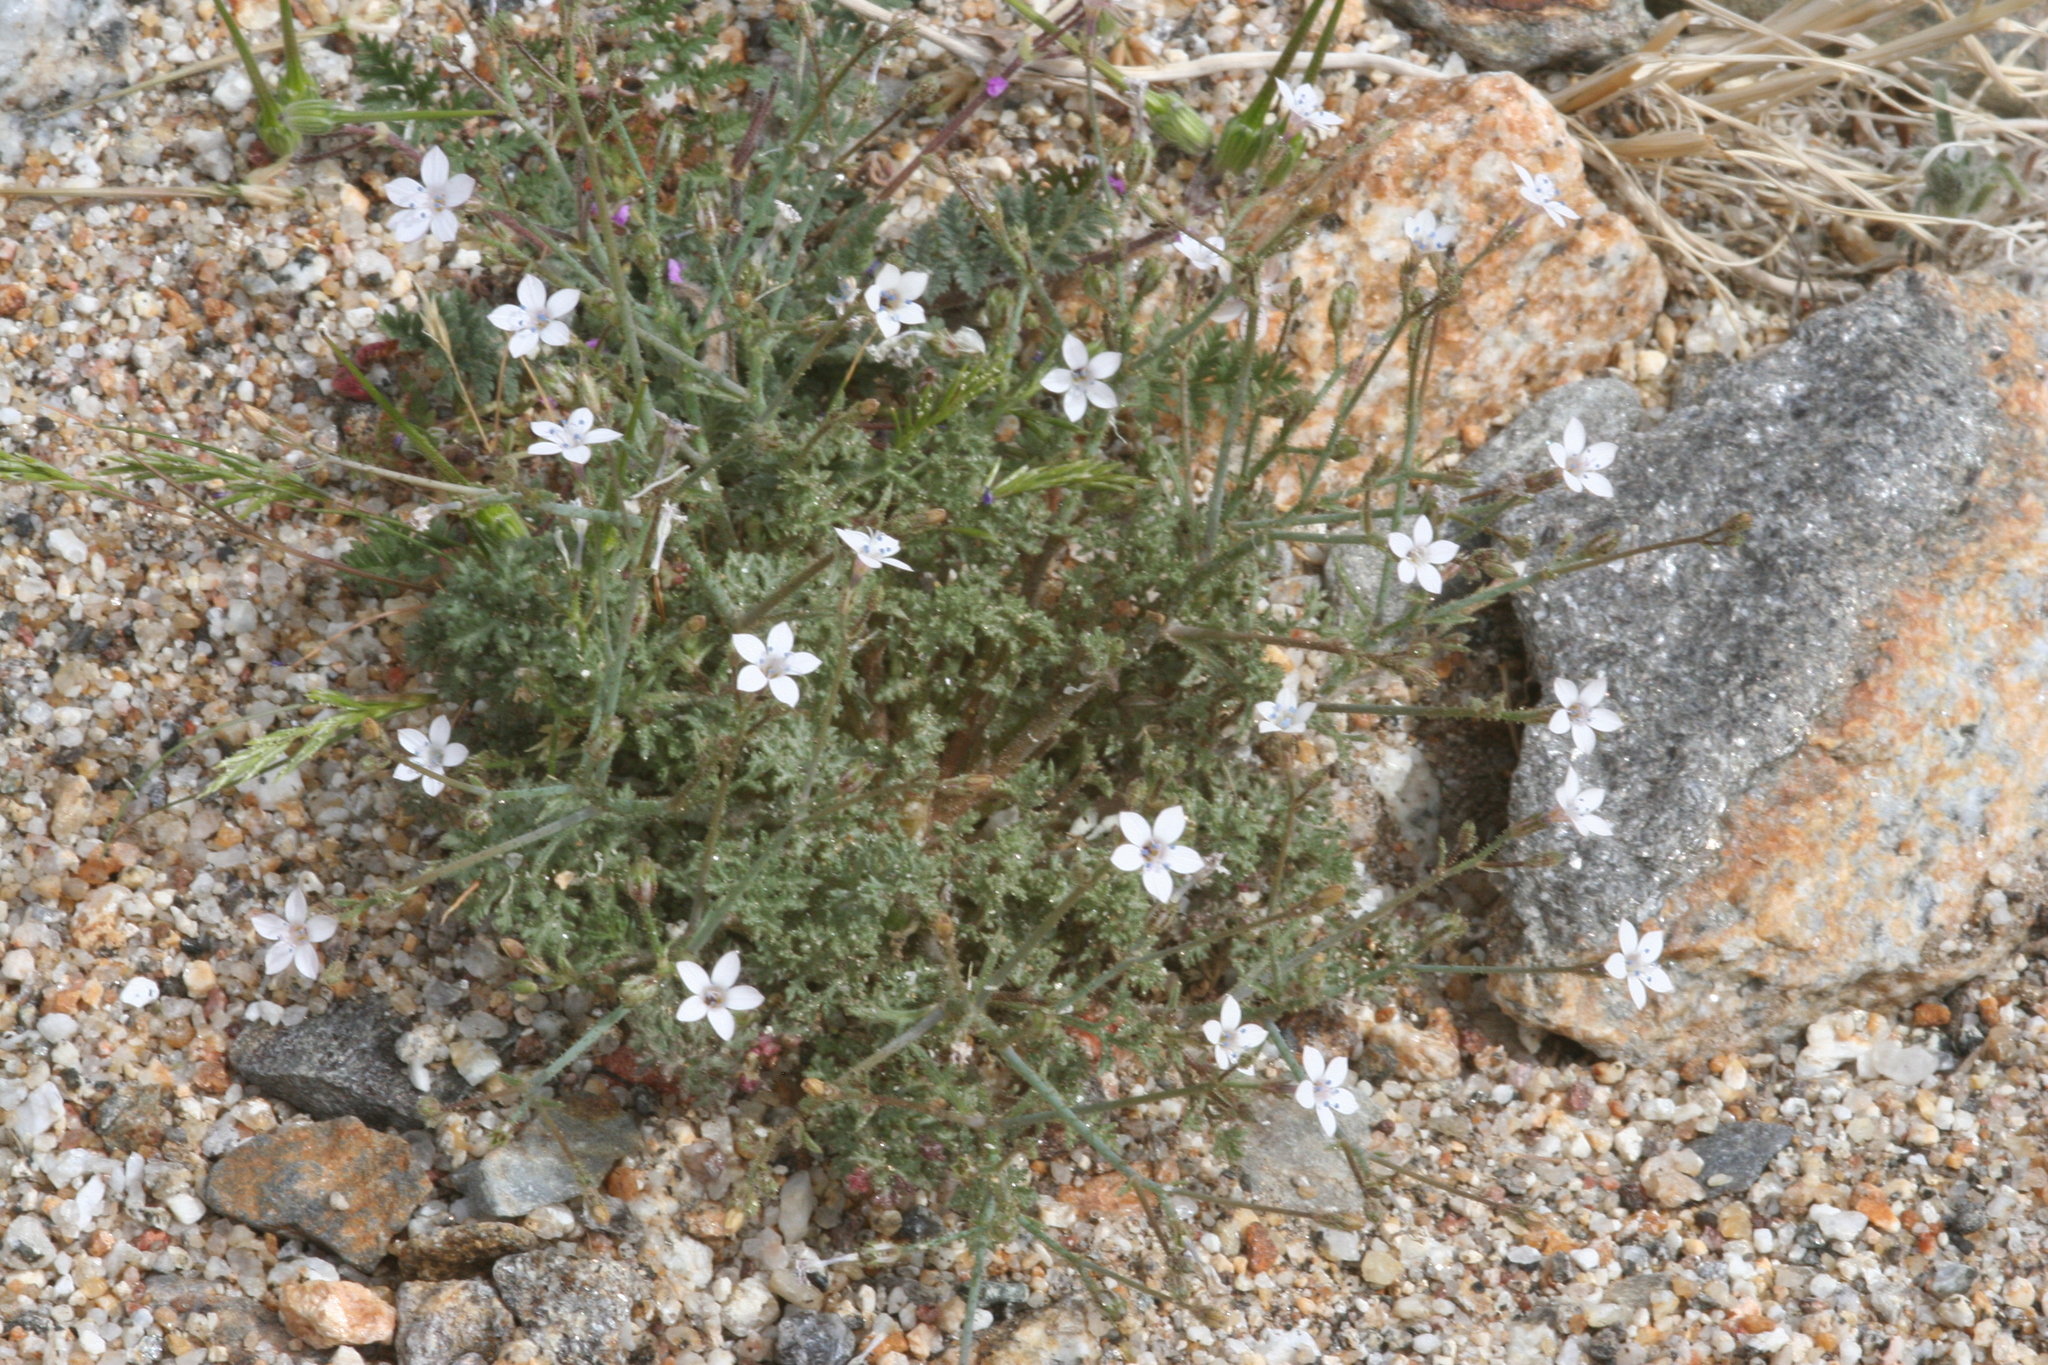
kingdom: Plantae
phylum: Tracheophyta
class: Magnoliopsida
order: Ericales
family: Polemoniaceae
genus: Saltugilia
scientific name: Saltugilia australis
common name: Southern gilia
